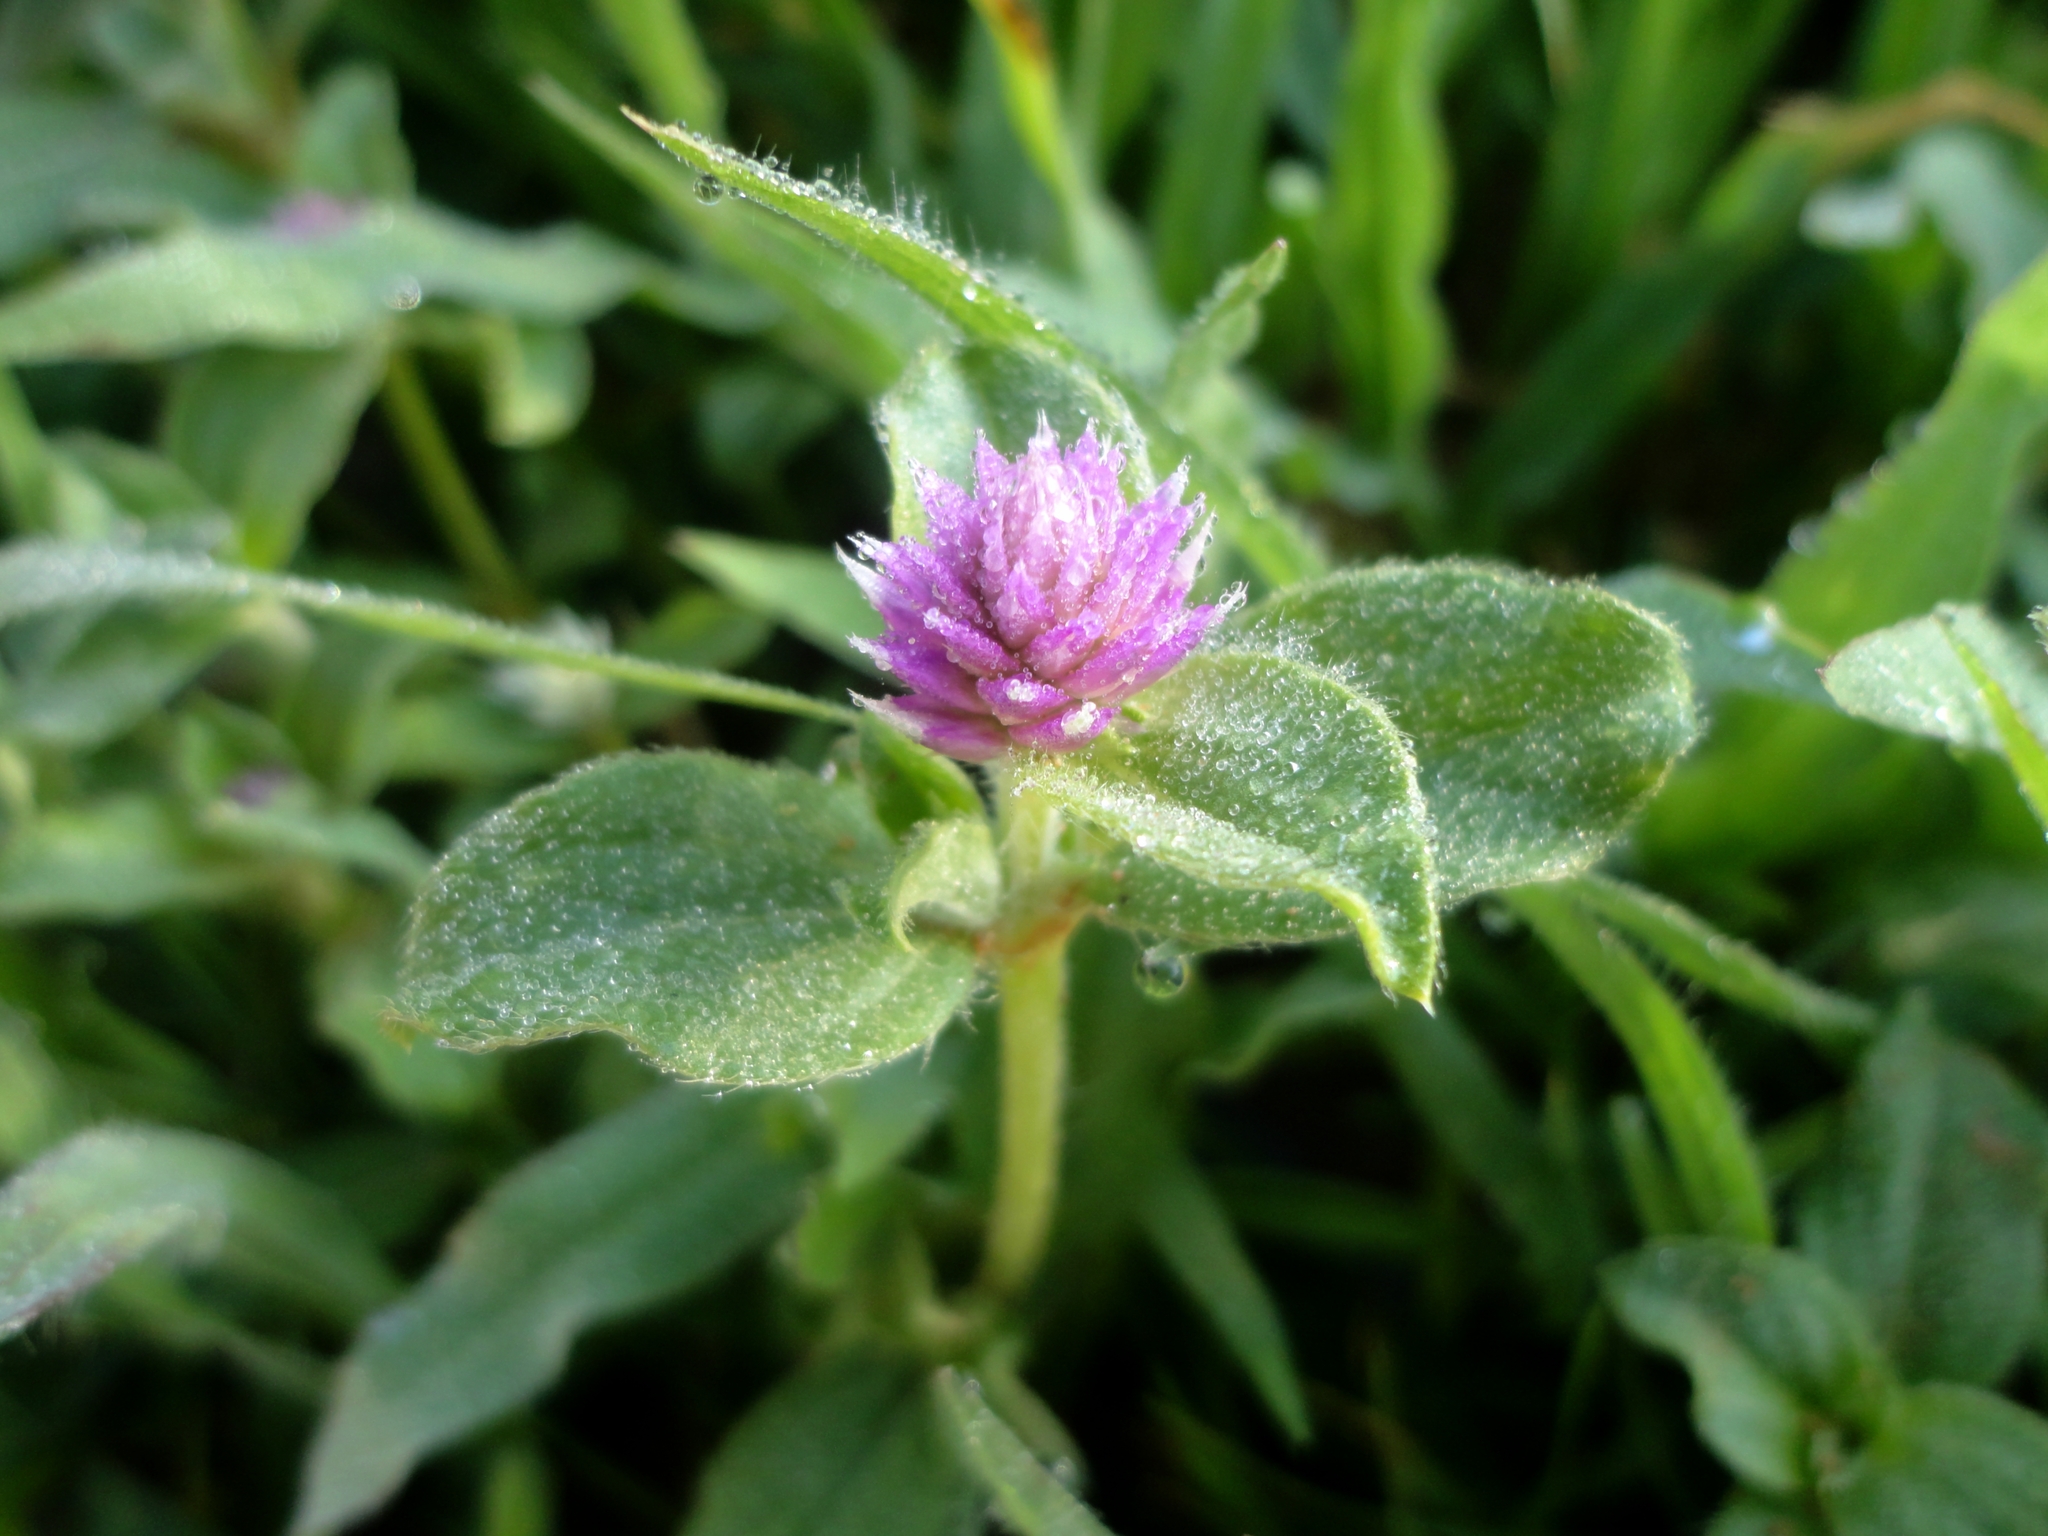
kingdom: Plantae
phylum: Tracheophyta
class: Magnoliopsida
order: Caryophyllales
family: Amaranthaceae
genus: Gomphrena
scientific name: Gomphrena serrata
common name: Arrasa con todo
